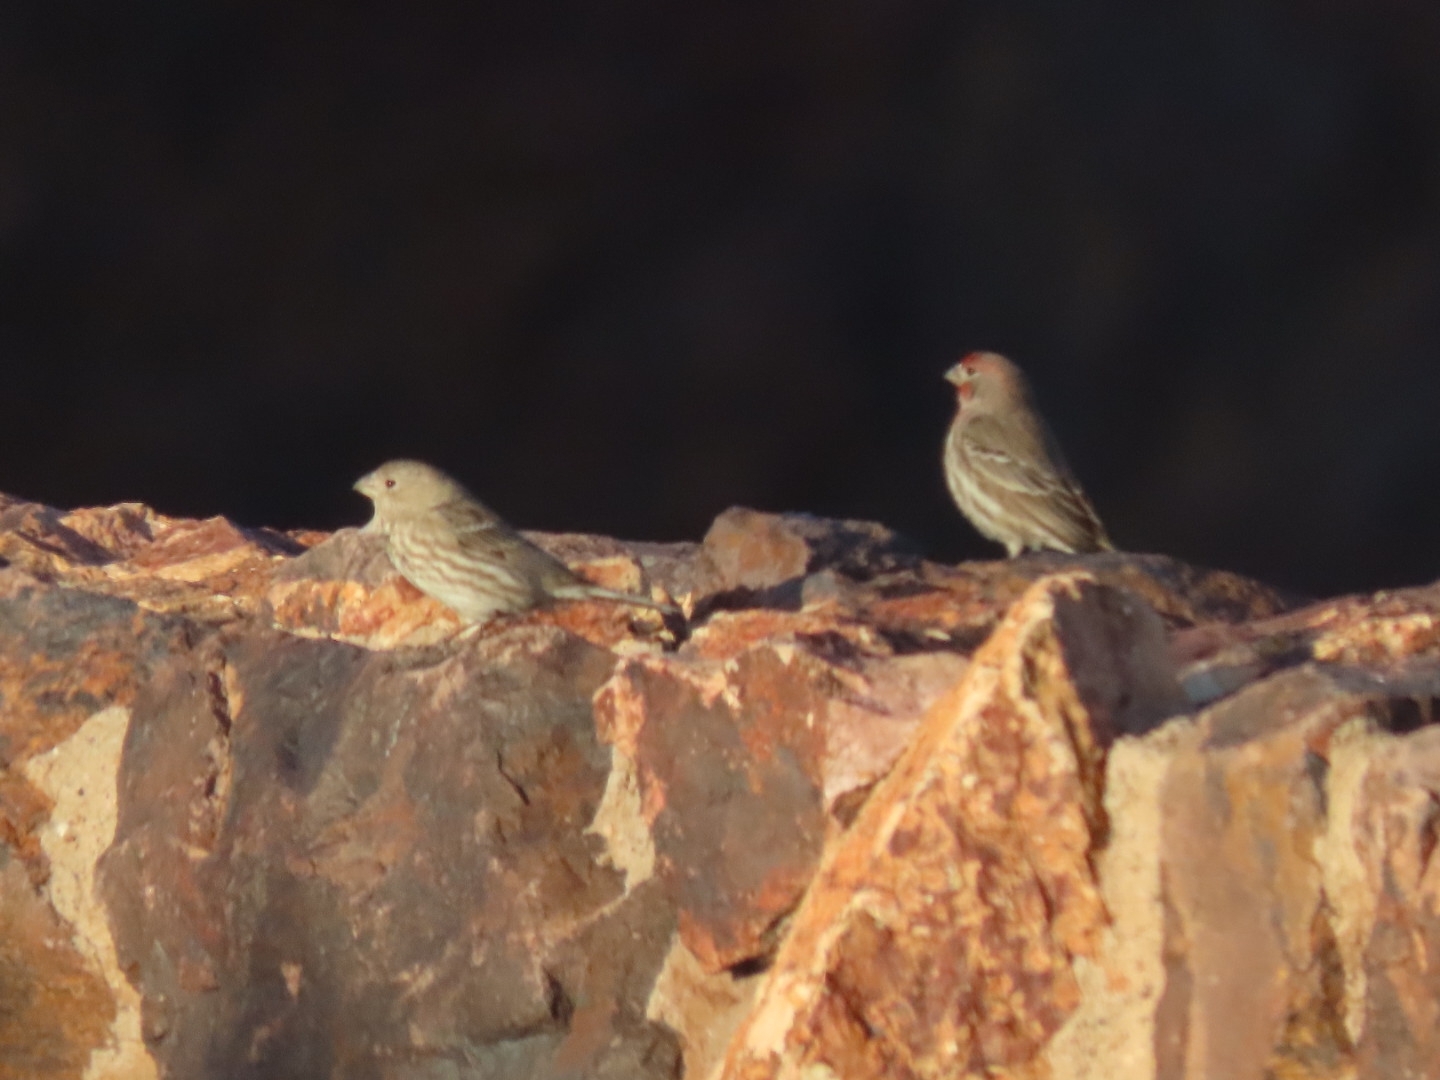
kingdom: Animalia
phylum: Chordata
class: Aves
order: Passeriformes
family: Fringillidae
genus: Haemorhous
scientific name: Haemorhous mexicanus
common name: House finch
